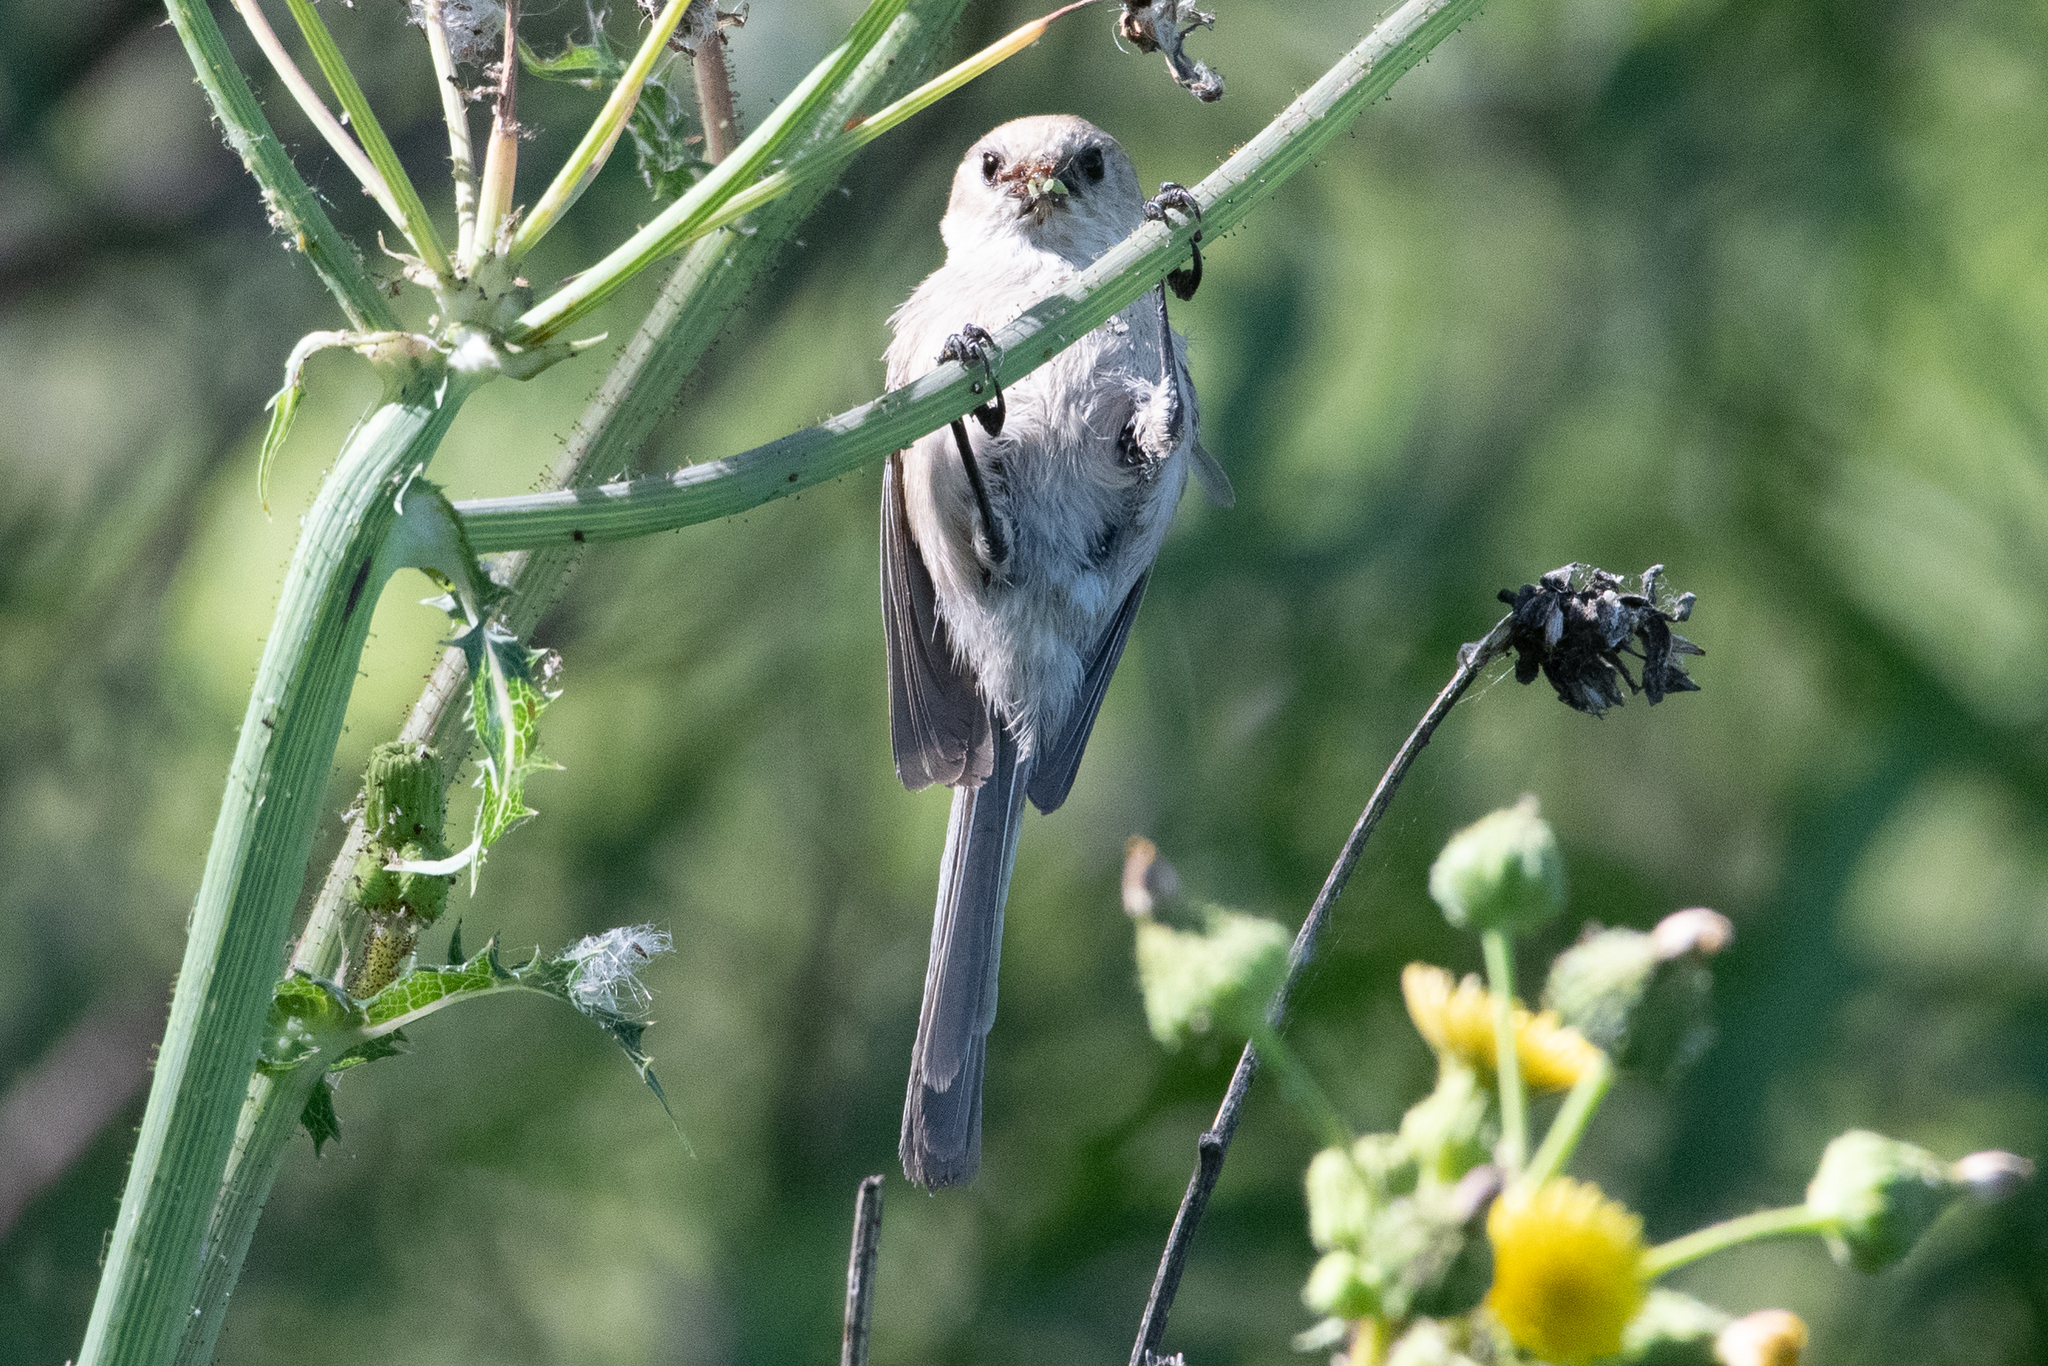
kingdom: Animalia
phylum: Chordata
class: Aves
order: Passeriformes
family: Aegithalidae
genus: Psaltriparus
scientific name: Psaltriparus minimus
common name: American bushtit
